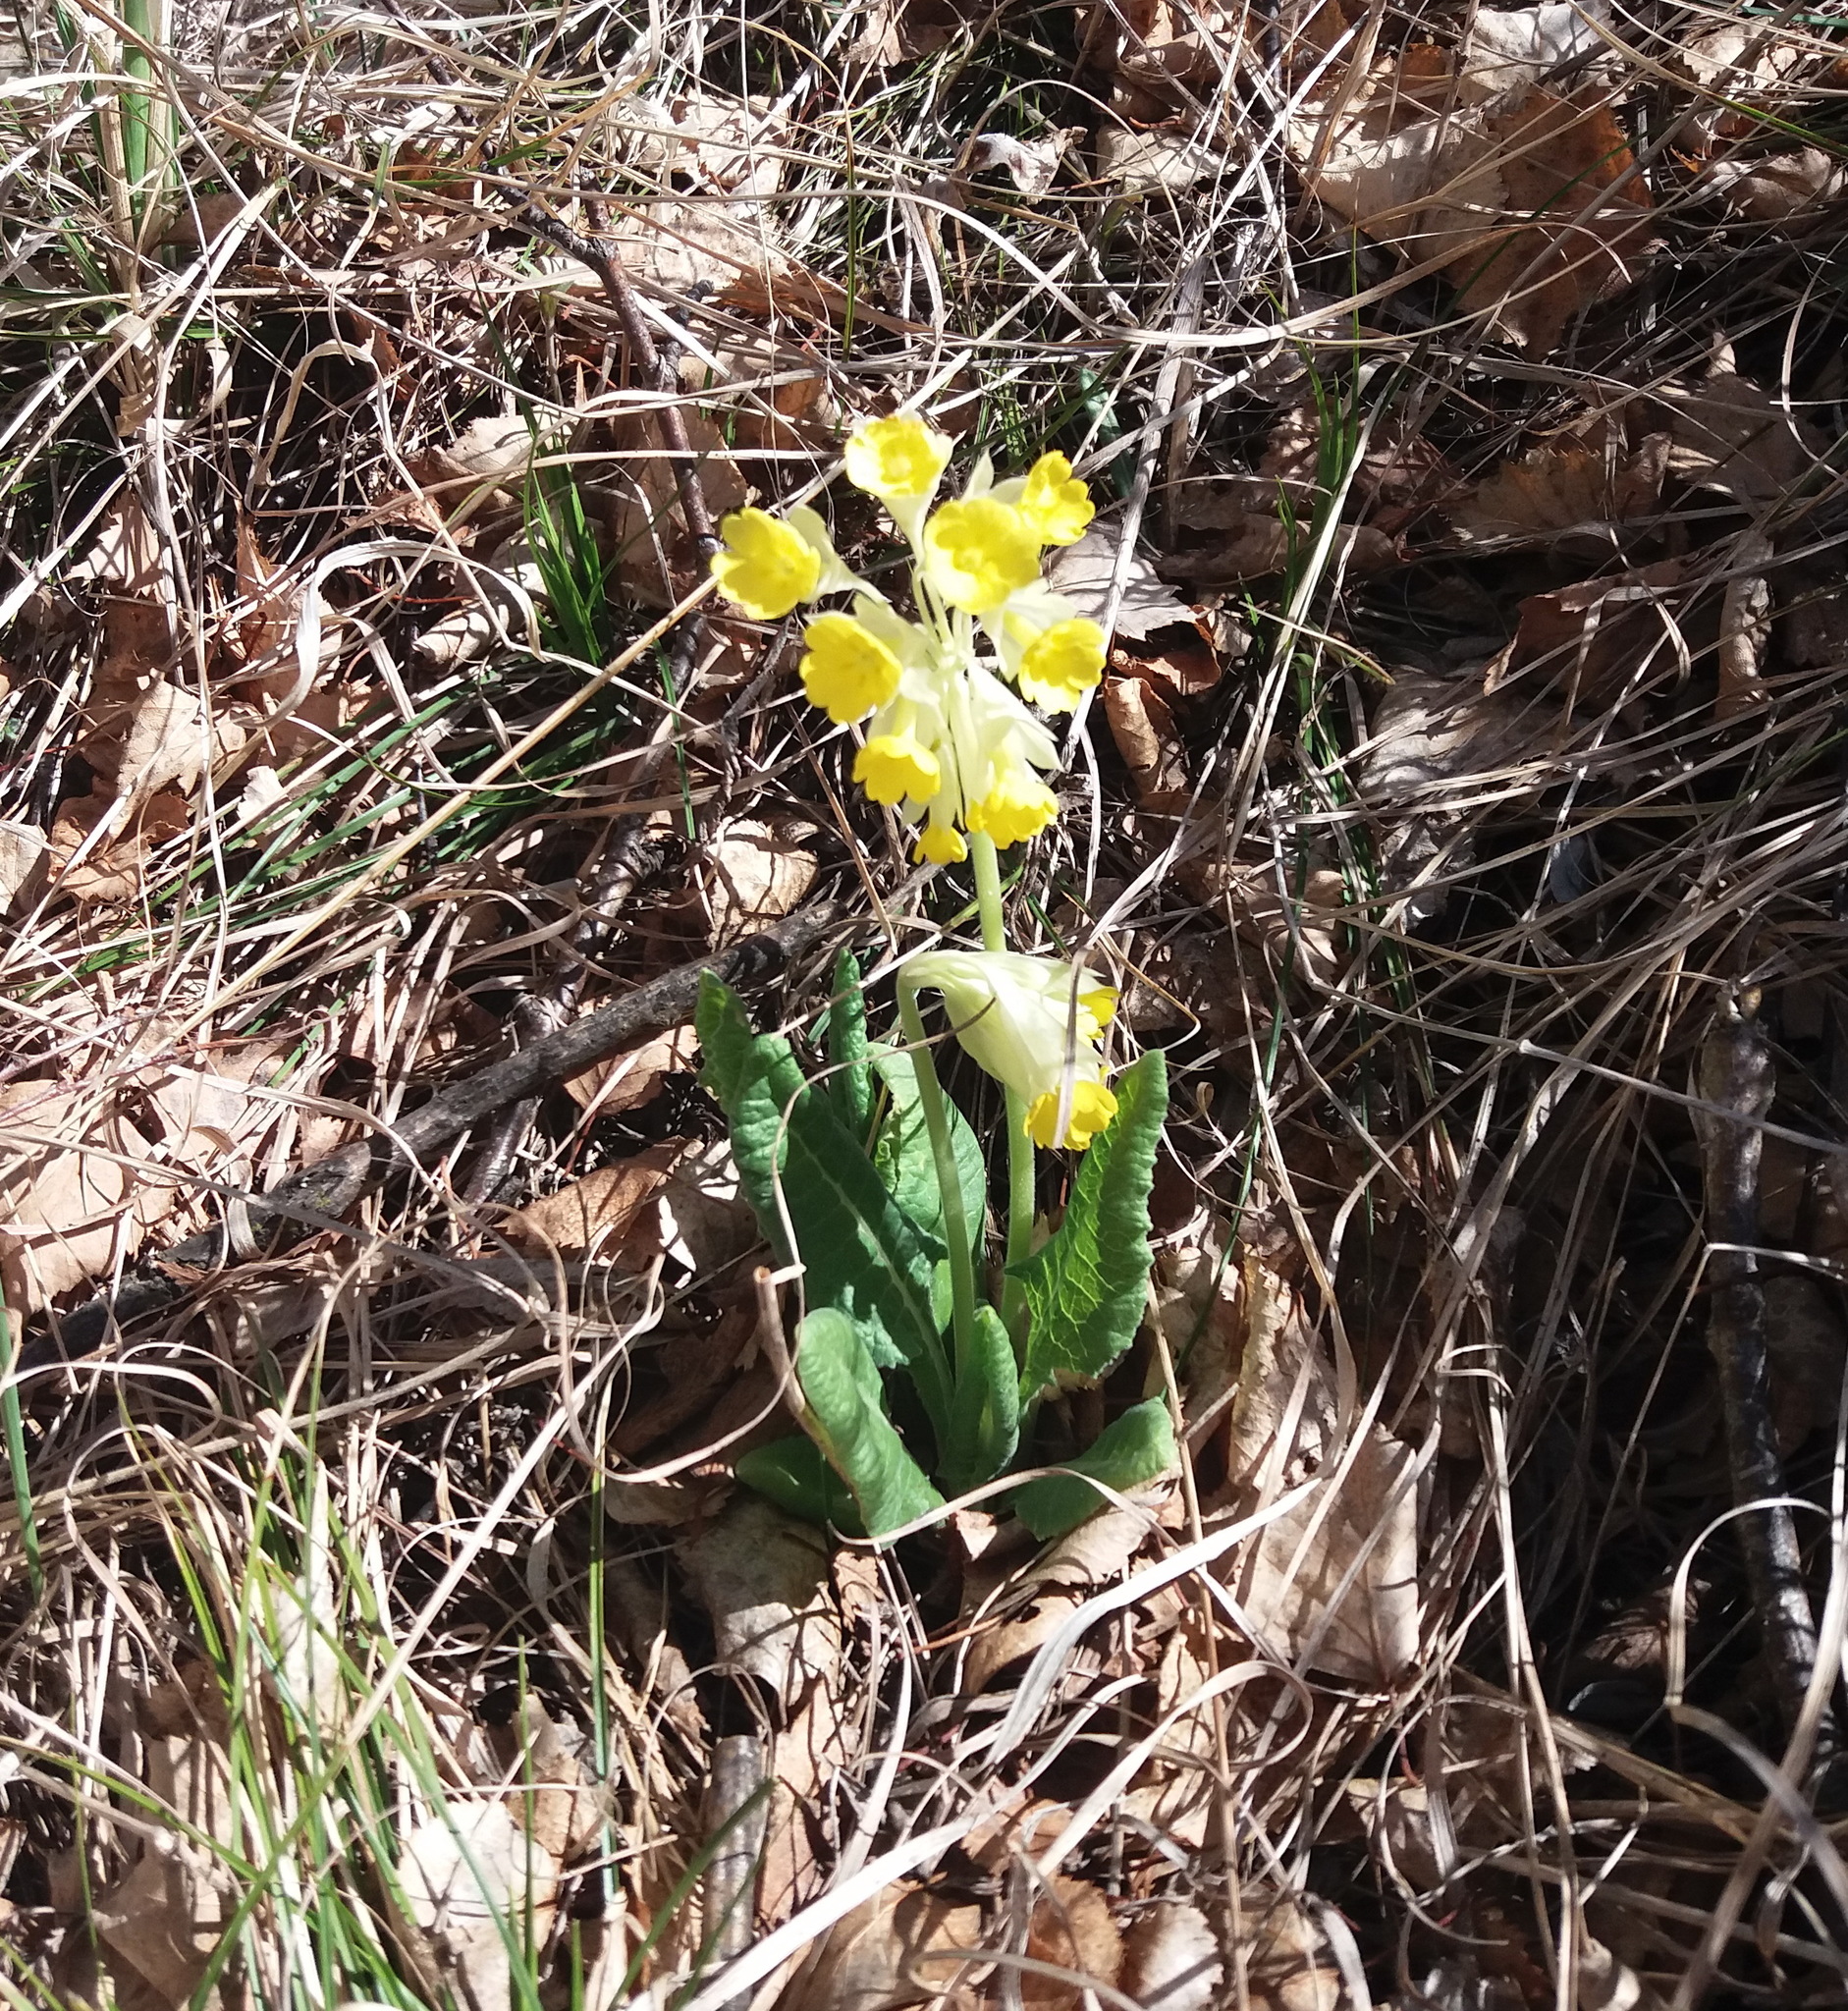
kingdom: Plantae
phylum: Tracheophyta
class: Magnoliopsida
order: Ericales
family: Primulaceae
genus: Primula
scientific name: Primula veris
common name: Cowslip
